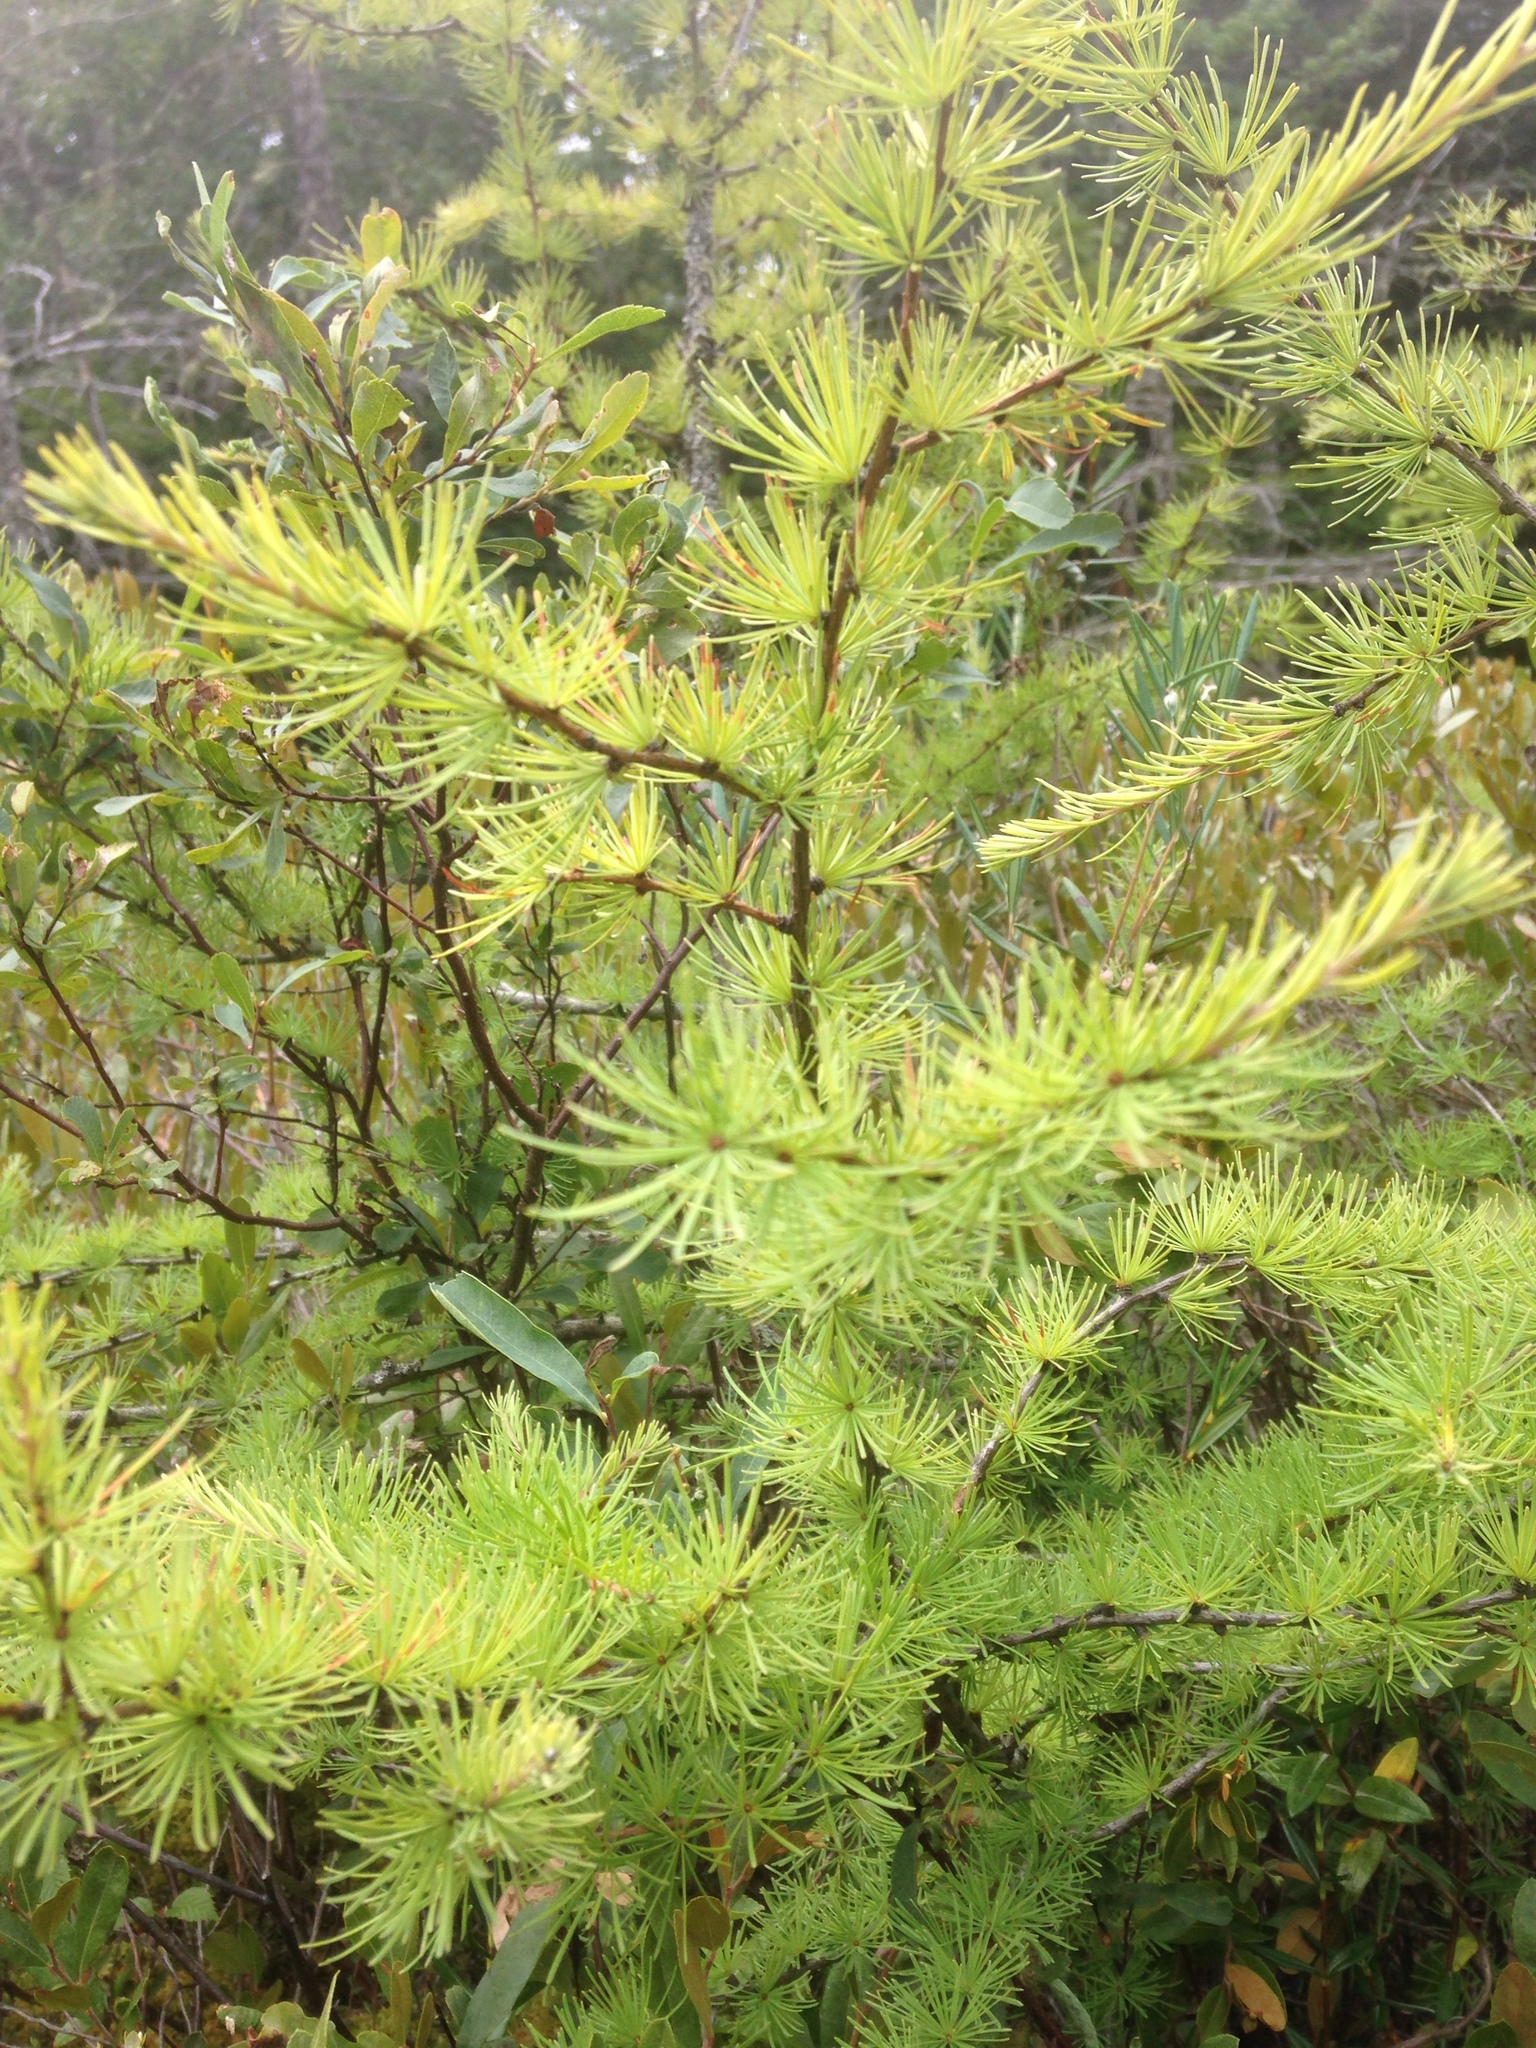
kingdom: Plantae
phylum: Tracheophyta
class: Pinopsida
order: Pinales
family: Pinaceae
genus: Larix
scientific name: Larix laricina
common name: American larch
